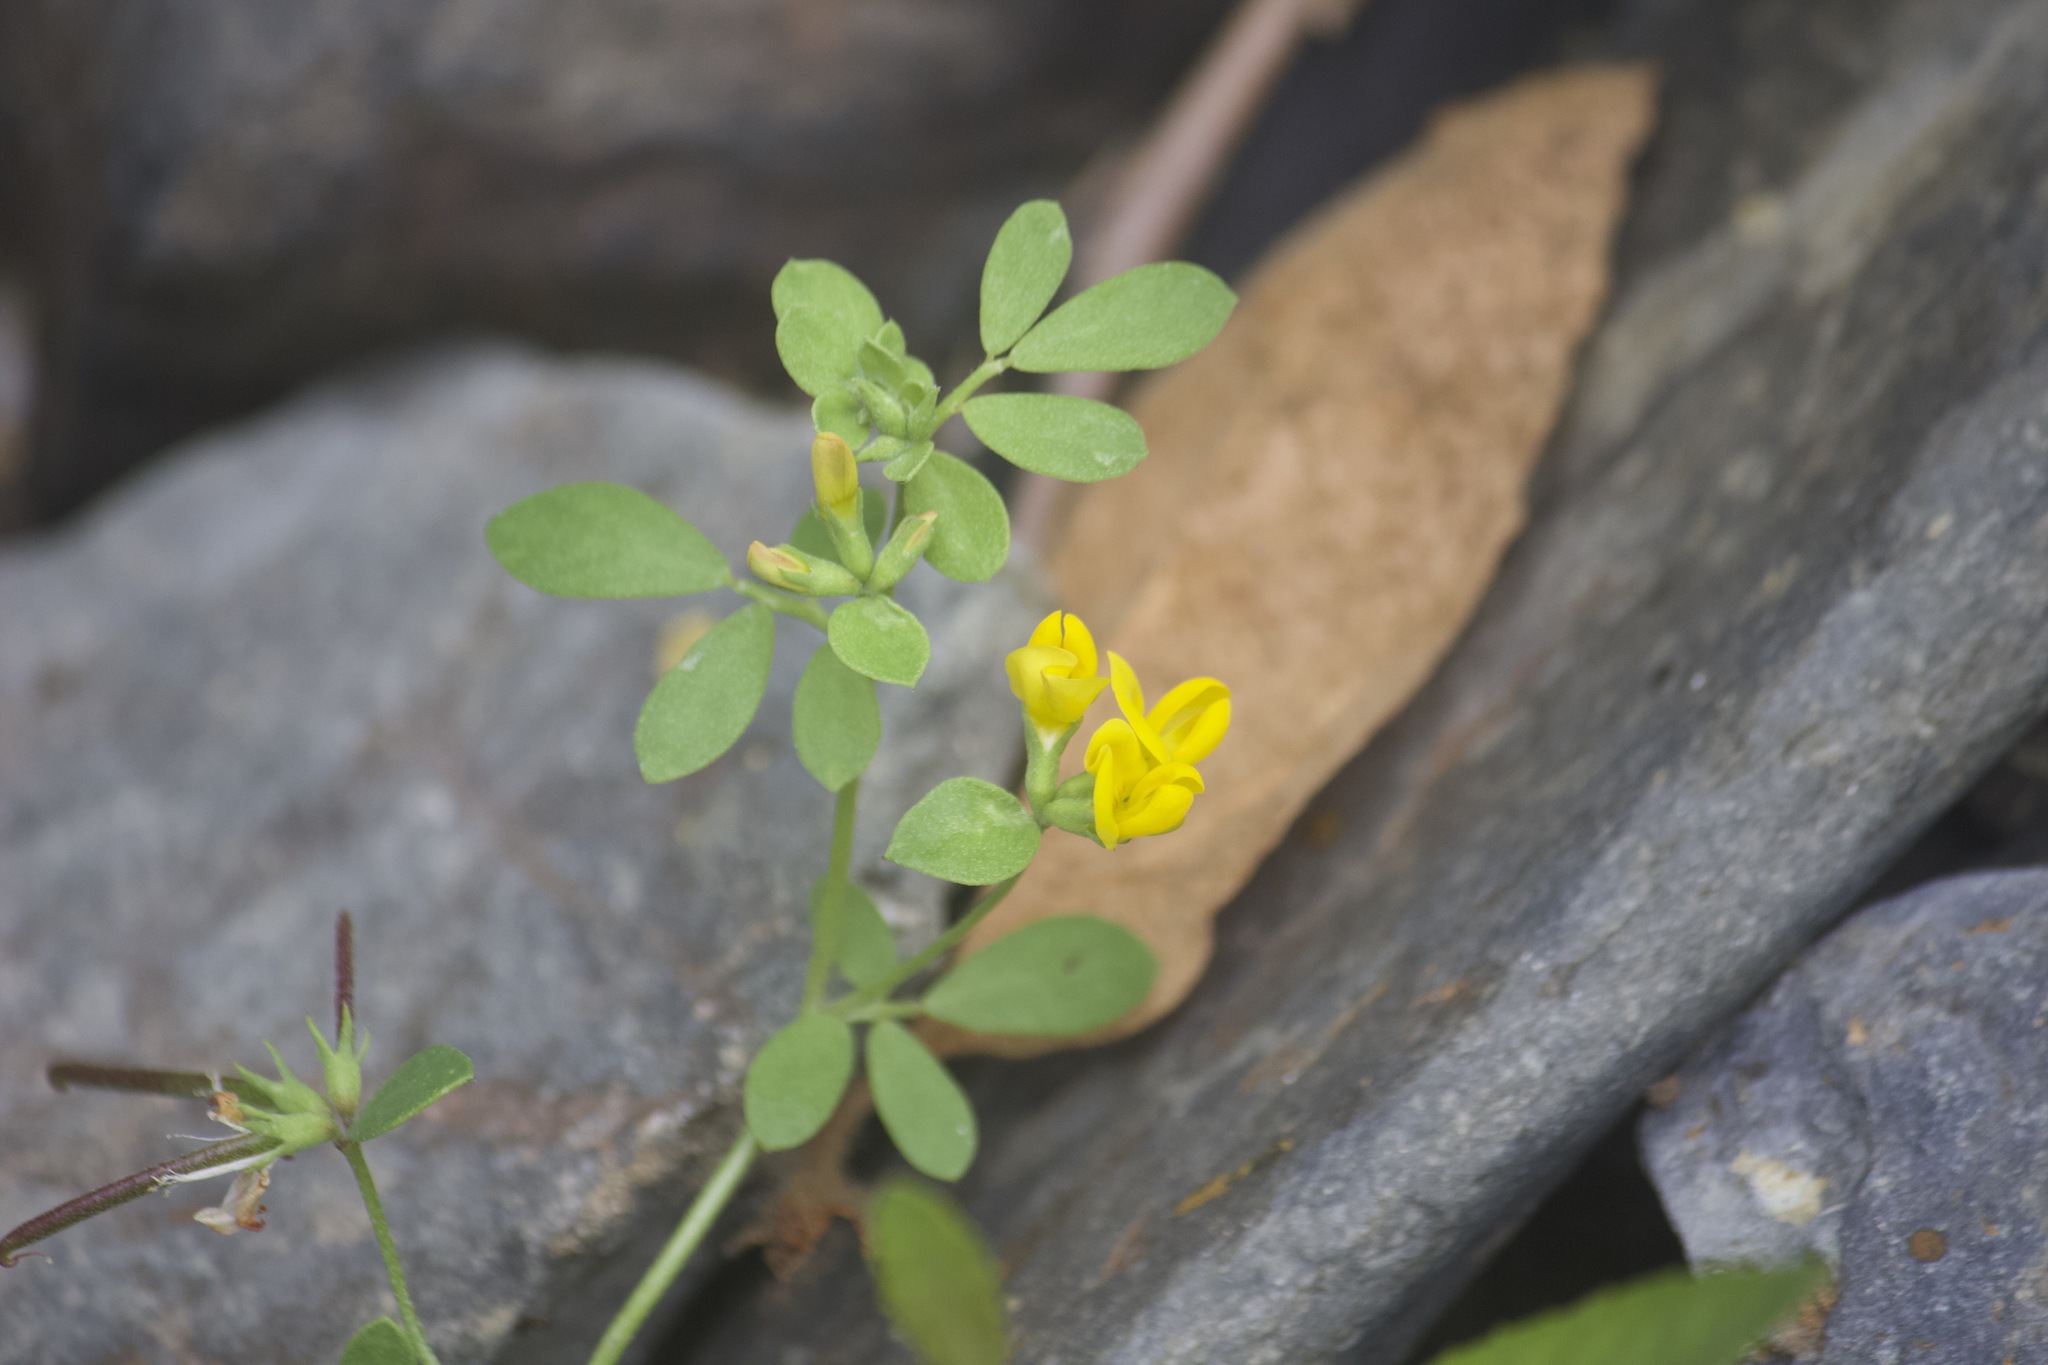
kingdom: Plantae
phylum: Tracheophyta
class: Magnoliopsida
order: Fabales
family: Fabaceae
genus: Acmispon
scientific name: Acmispon maritimus
